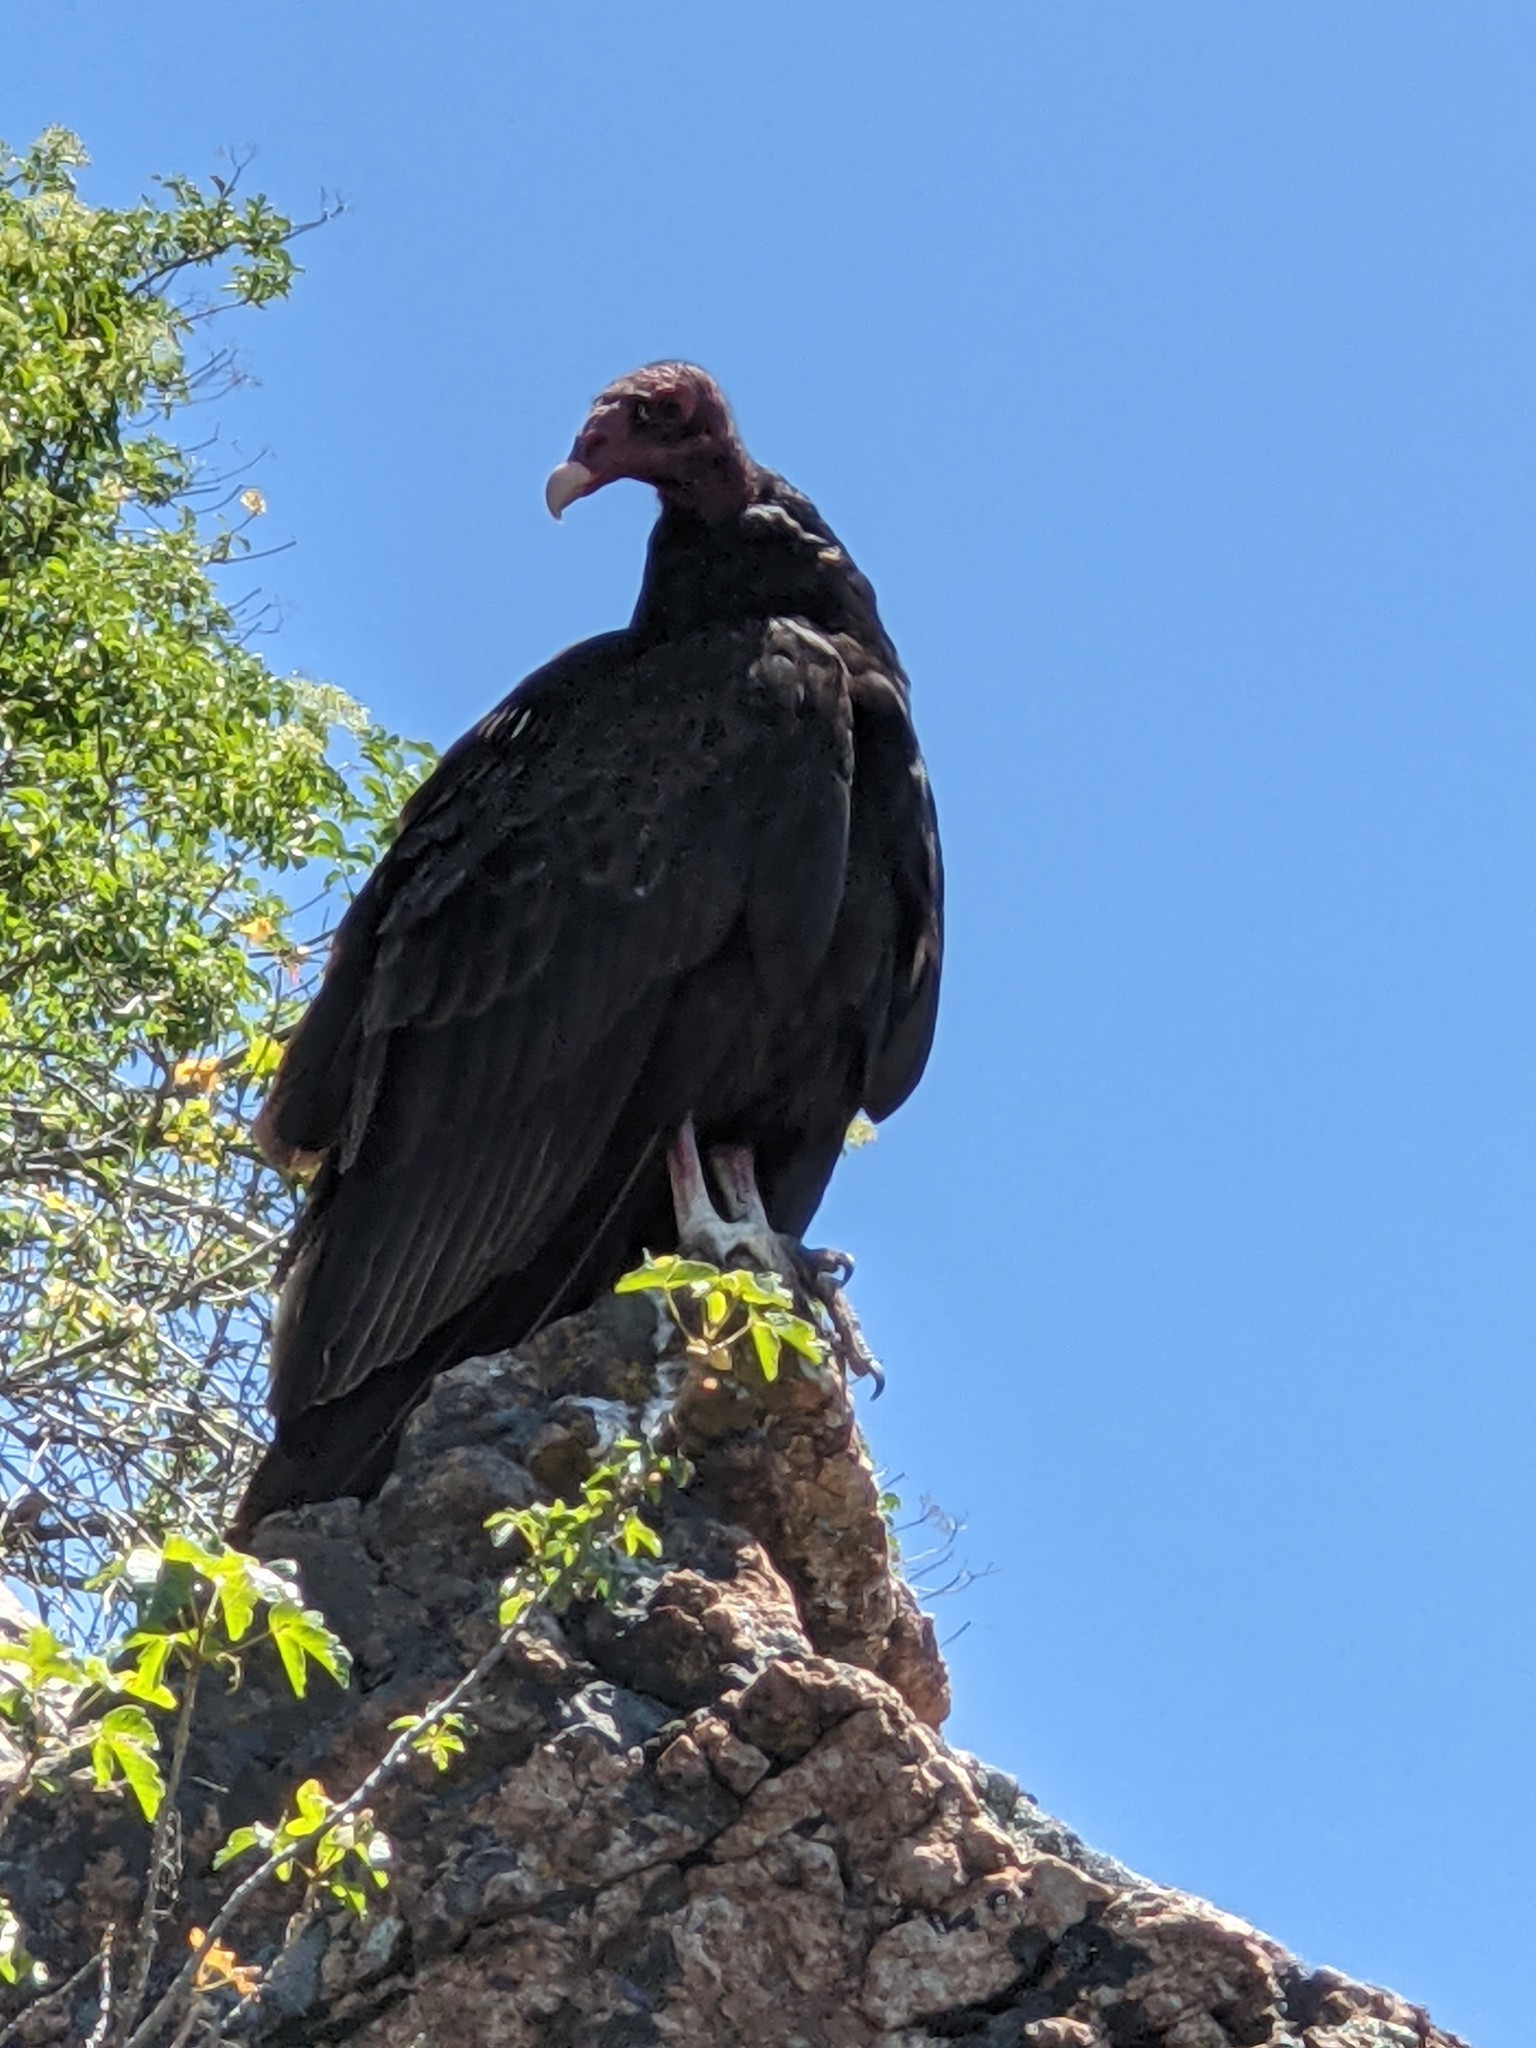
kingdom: Animalia
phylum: Chordata
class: Aves
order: Accipitriformes
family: Cathartidae
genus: Cathartes
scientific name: Cathartes aura
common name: Turkey vulture
